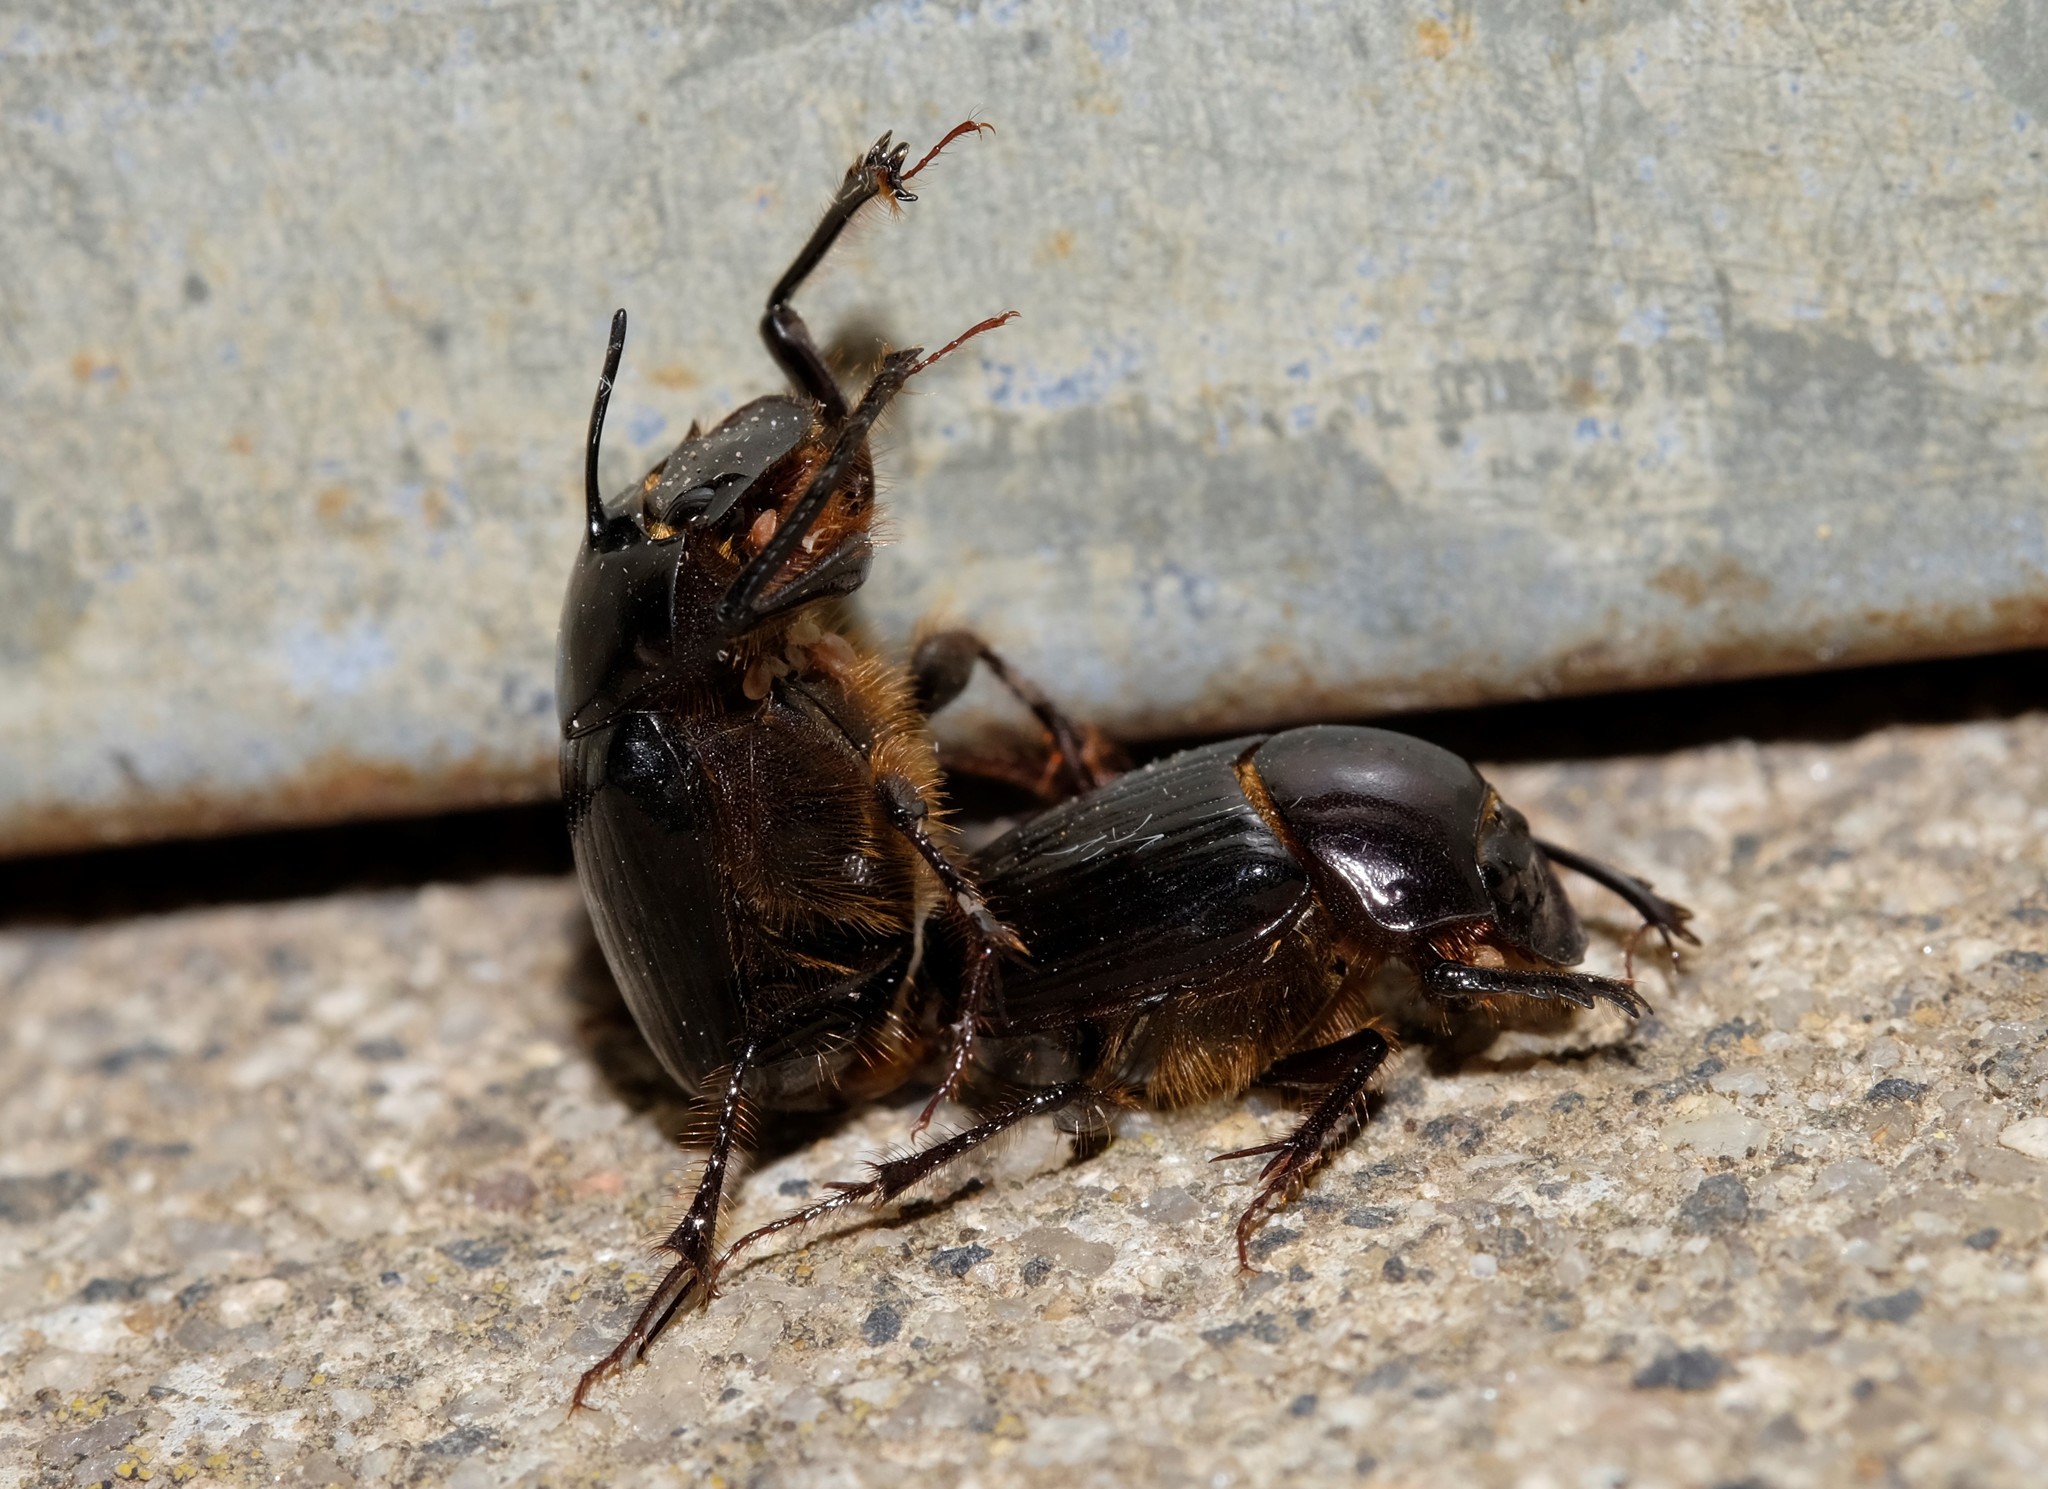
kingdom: Animalia
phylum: Arthropoda
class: Insecta
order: Coleoptera
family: Scarabaeidae
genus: Onthophagus
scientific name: Onthophagus pronus
